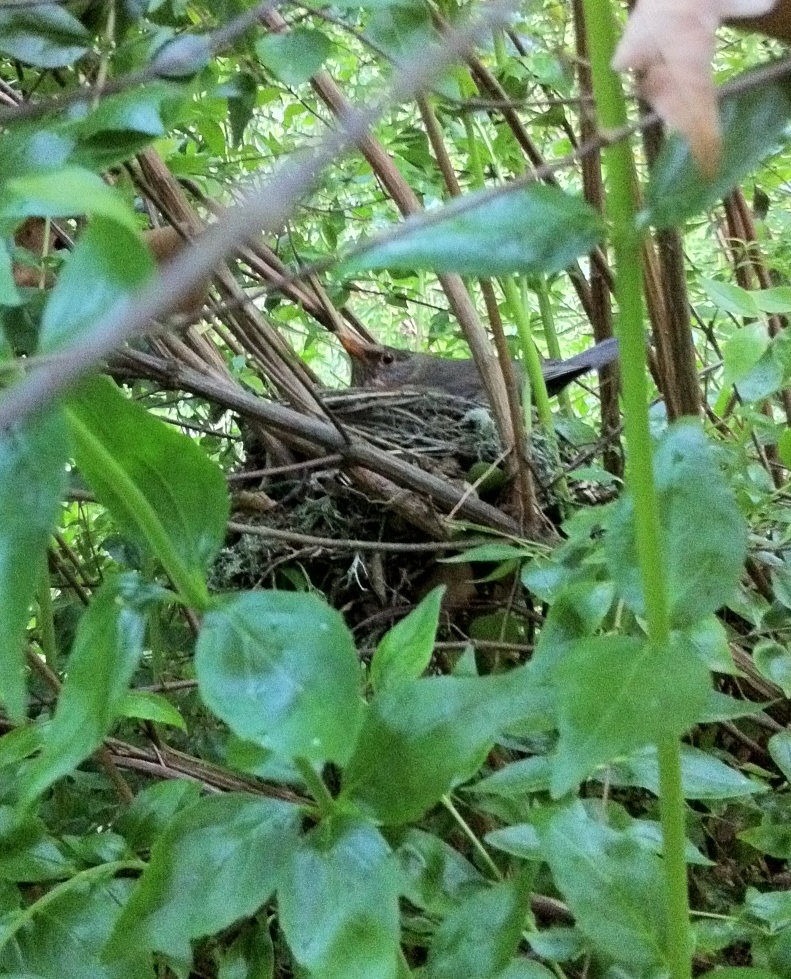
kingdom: Animalia
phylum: Chordata
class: Aves
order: Passeriformes
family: Turdidae
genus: Turdus
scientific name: Turdus merula
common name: Common blackbird
